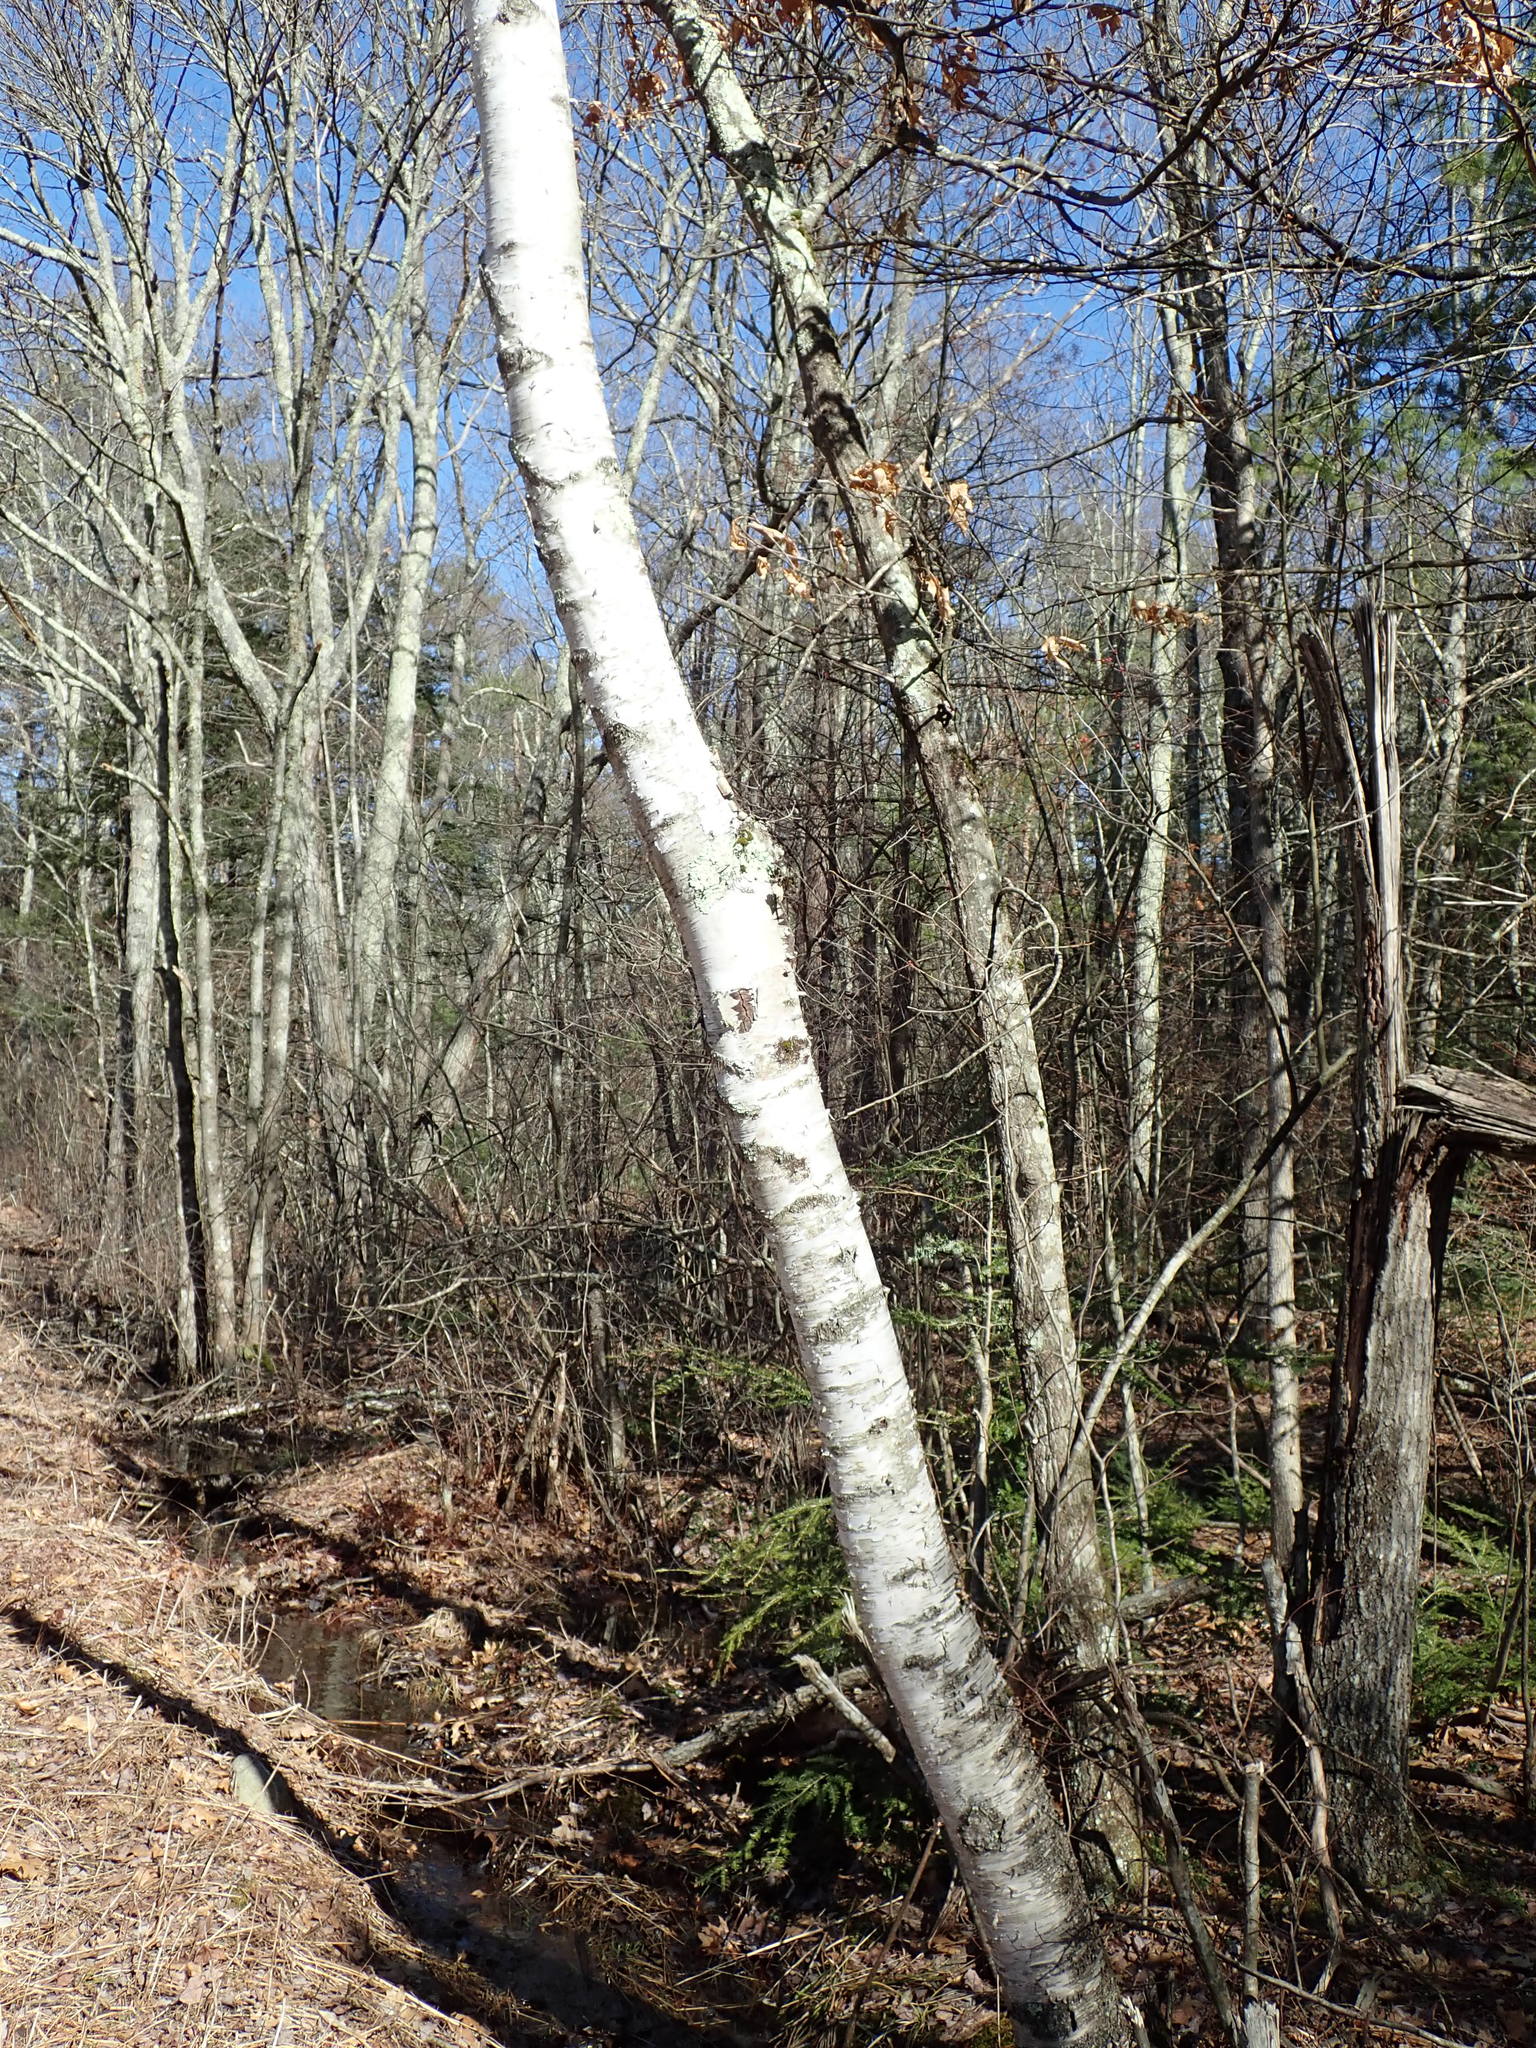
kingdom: Plantae
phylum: Tracheophyta
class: Magnoliopsida
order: Fagales
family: Betulaceae
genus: Betula
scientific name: Betula papyrifera
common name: Paper birch
